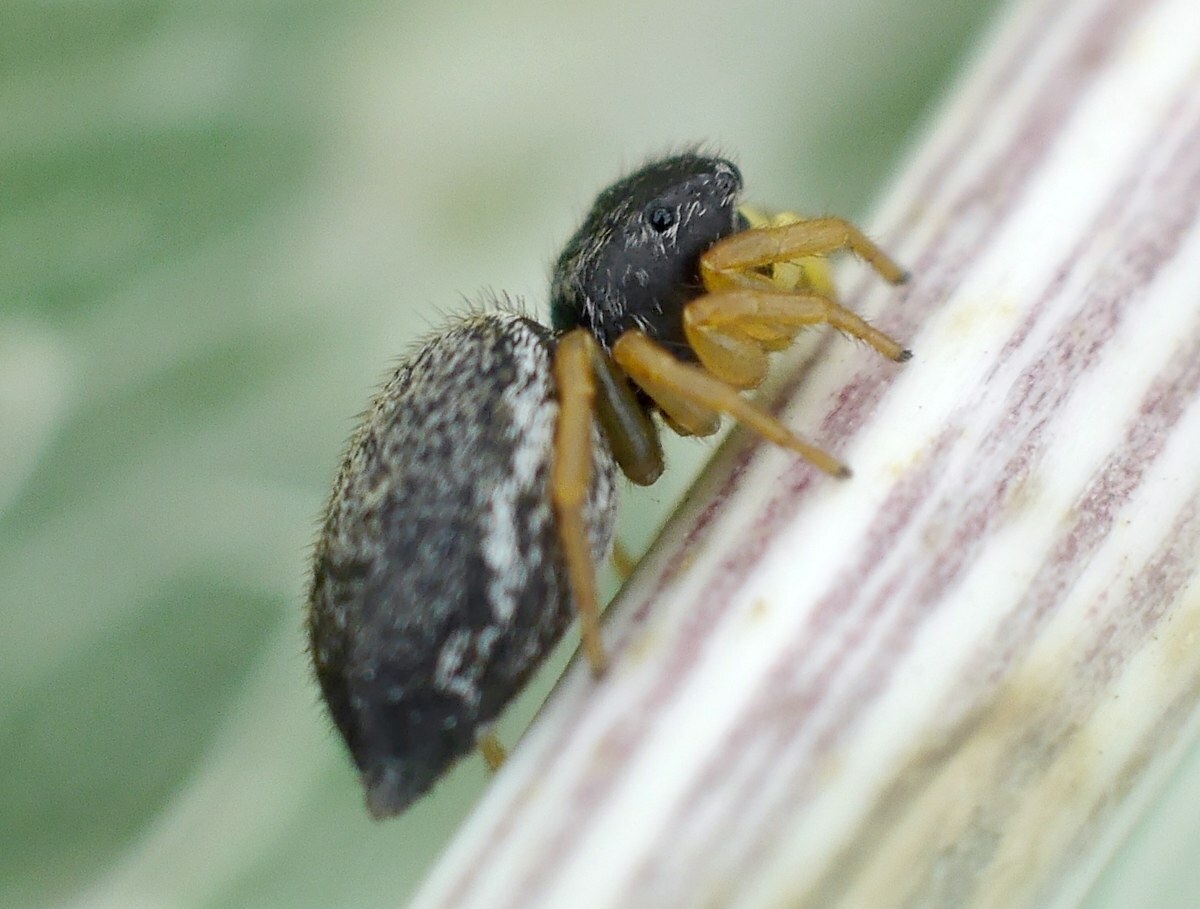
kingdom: Animalia
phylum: Arthropoda
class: Arachnida
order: Araneae
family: Salticidae
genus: Heliophanus
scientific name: Heliophanus flavipes
